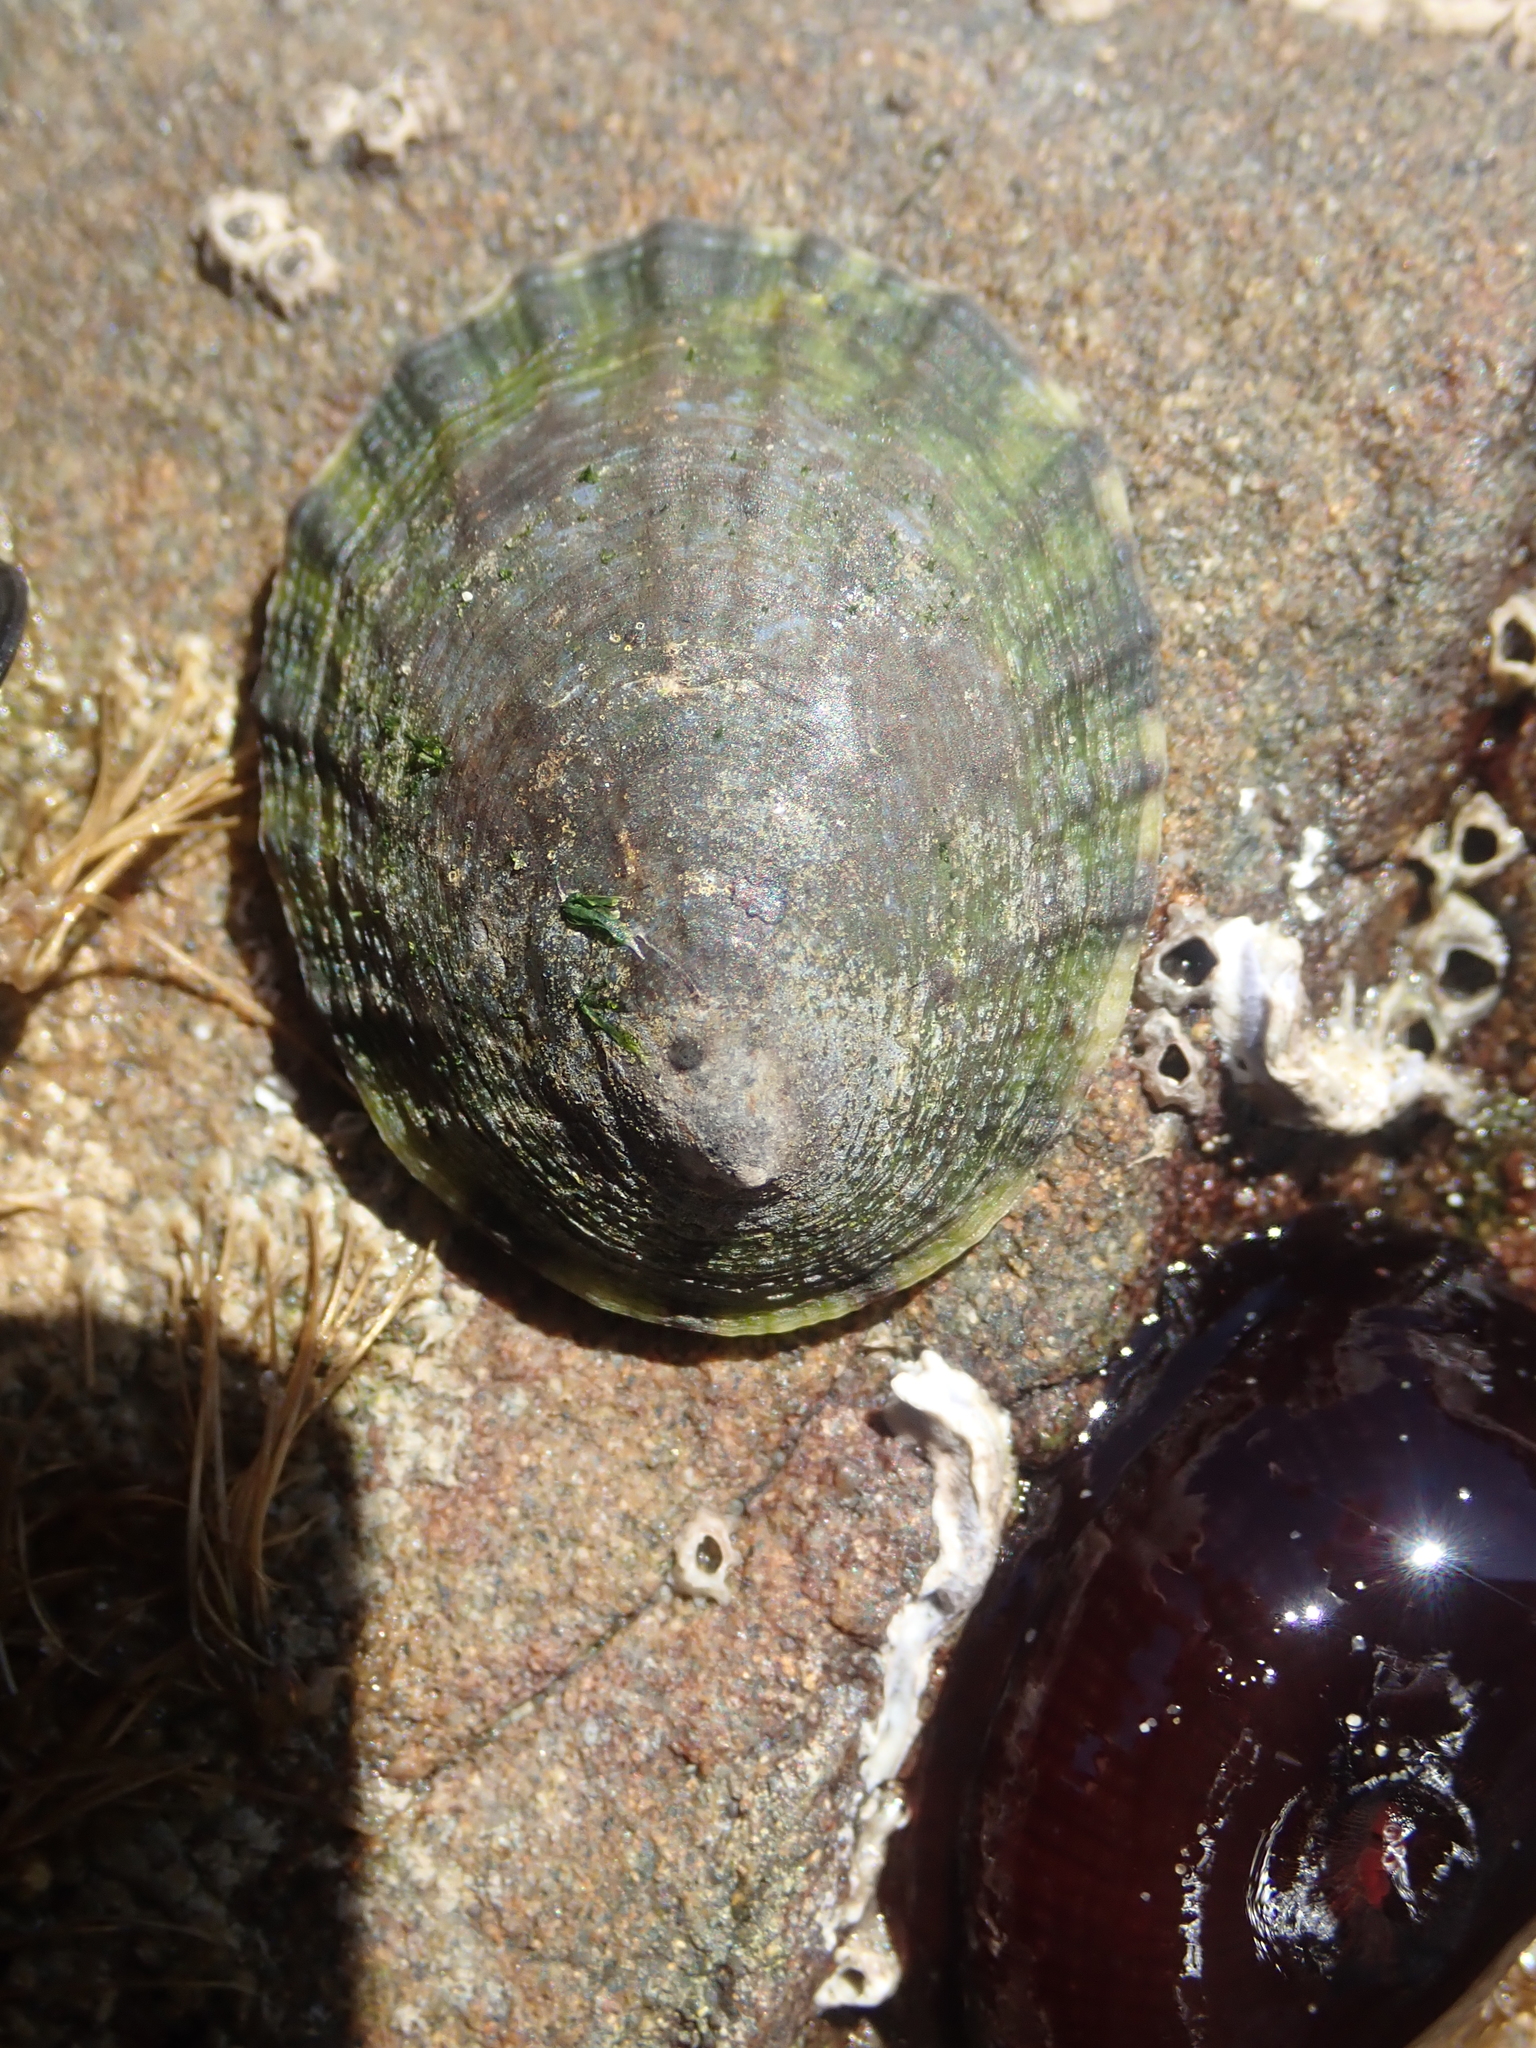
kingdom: Animalia
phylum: Mollusca
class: Gastropoda
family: Nacellidae
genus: Cellana
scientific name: Cellana radians
